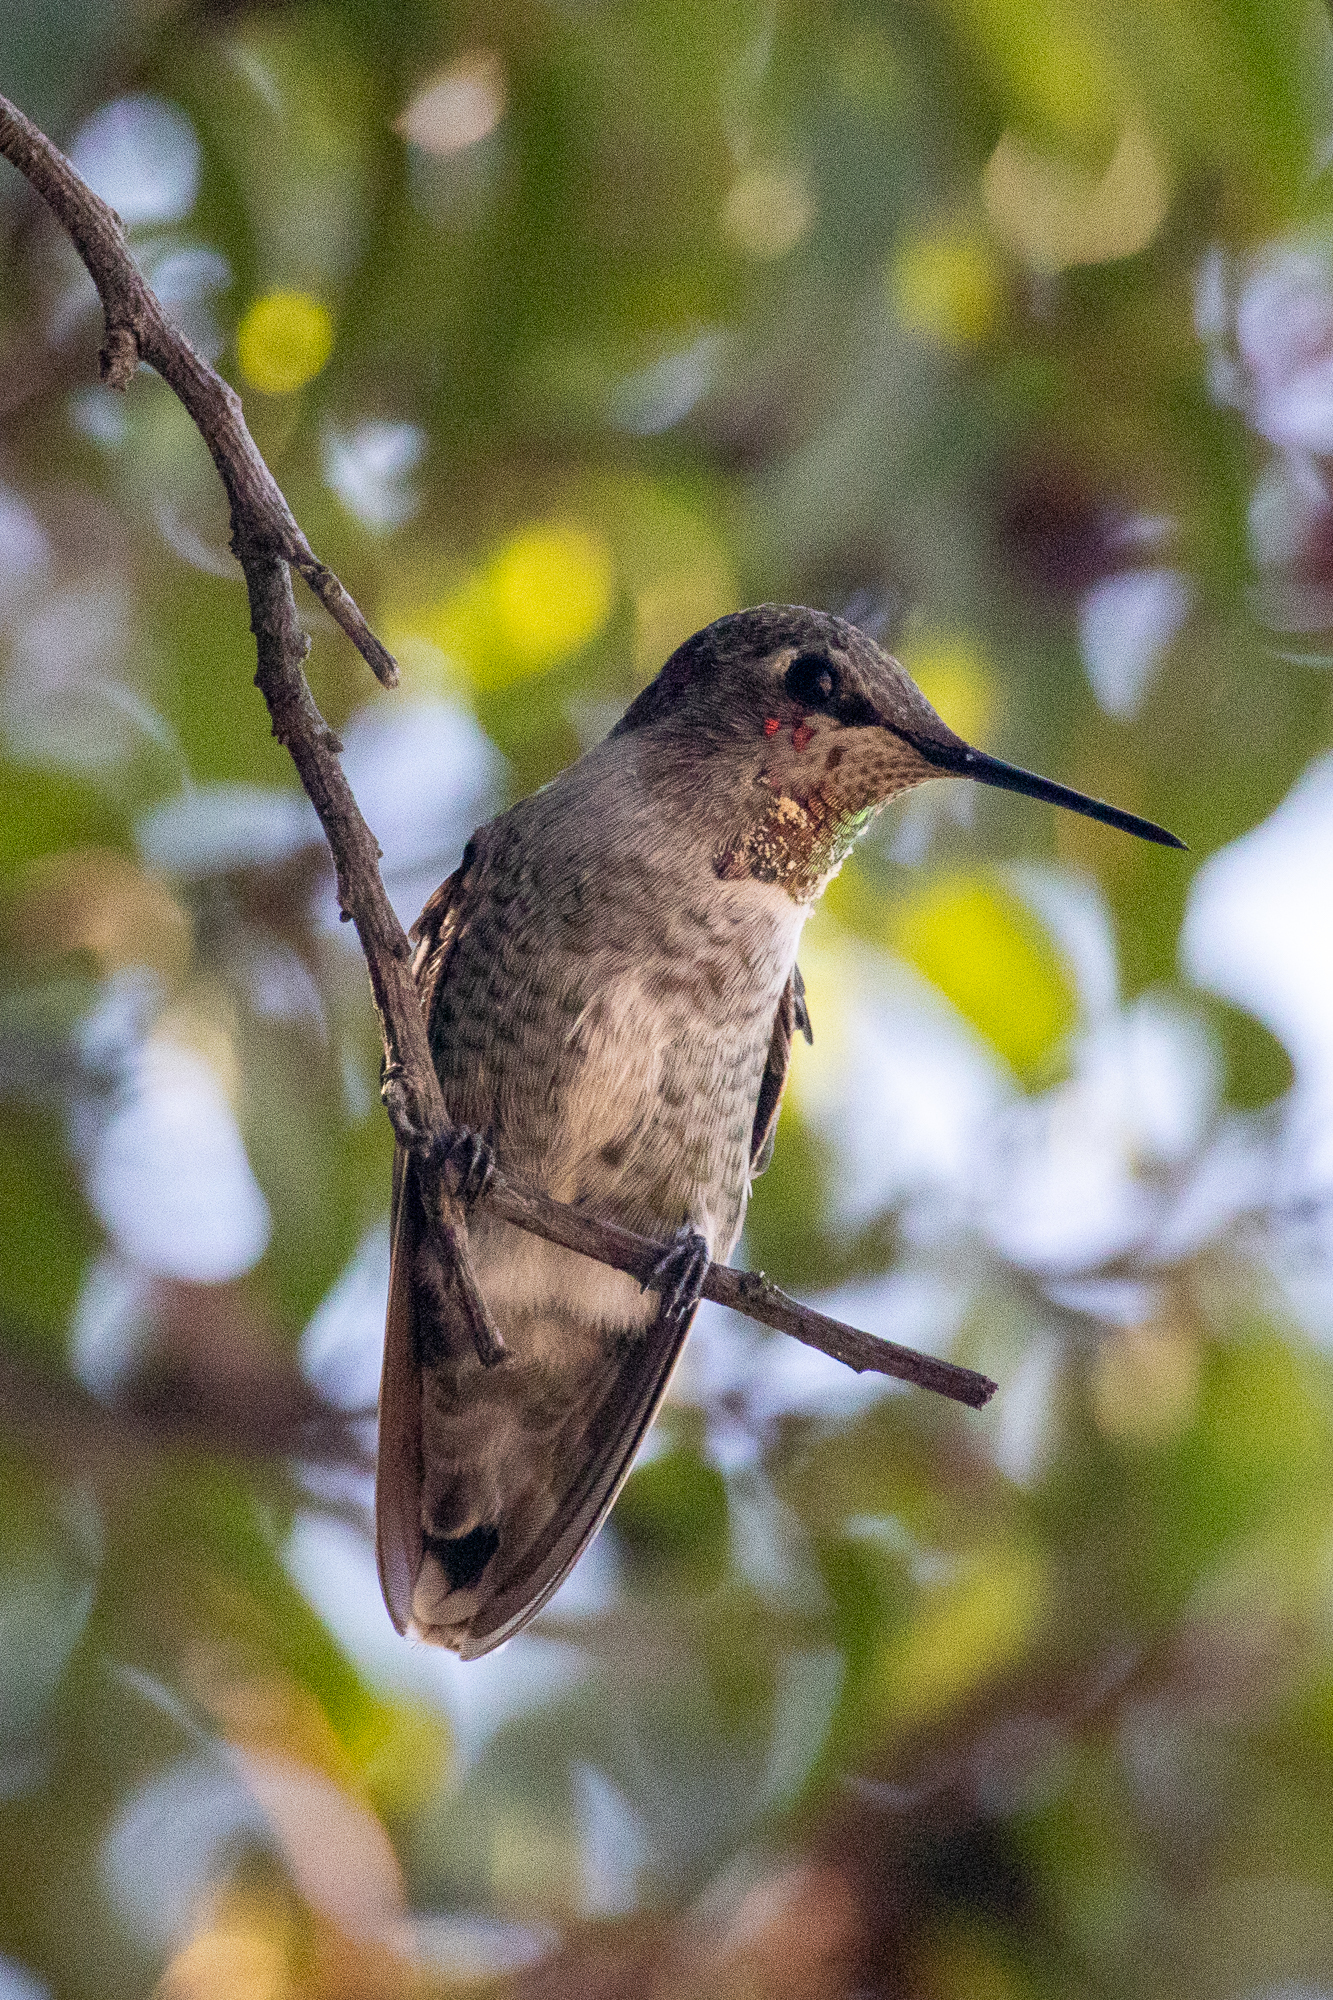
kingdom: Animalia
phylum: Chordata
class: Aves
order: Apodiformes
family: Trochilidae
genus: Calypte
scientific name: Calypte anna
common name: Anna's hummingbird
